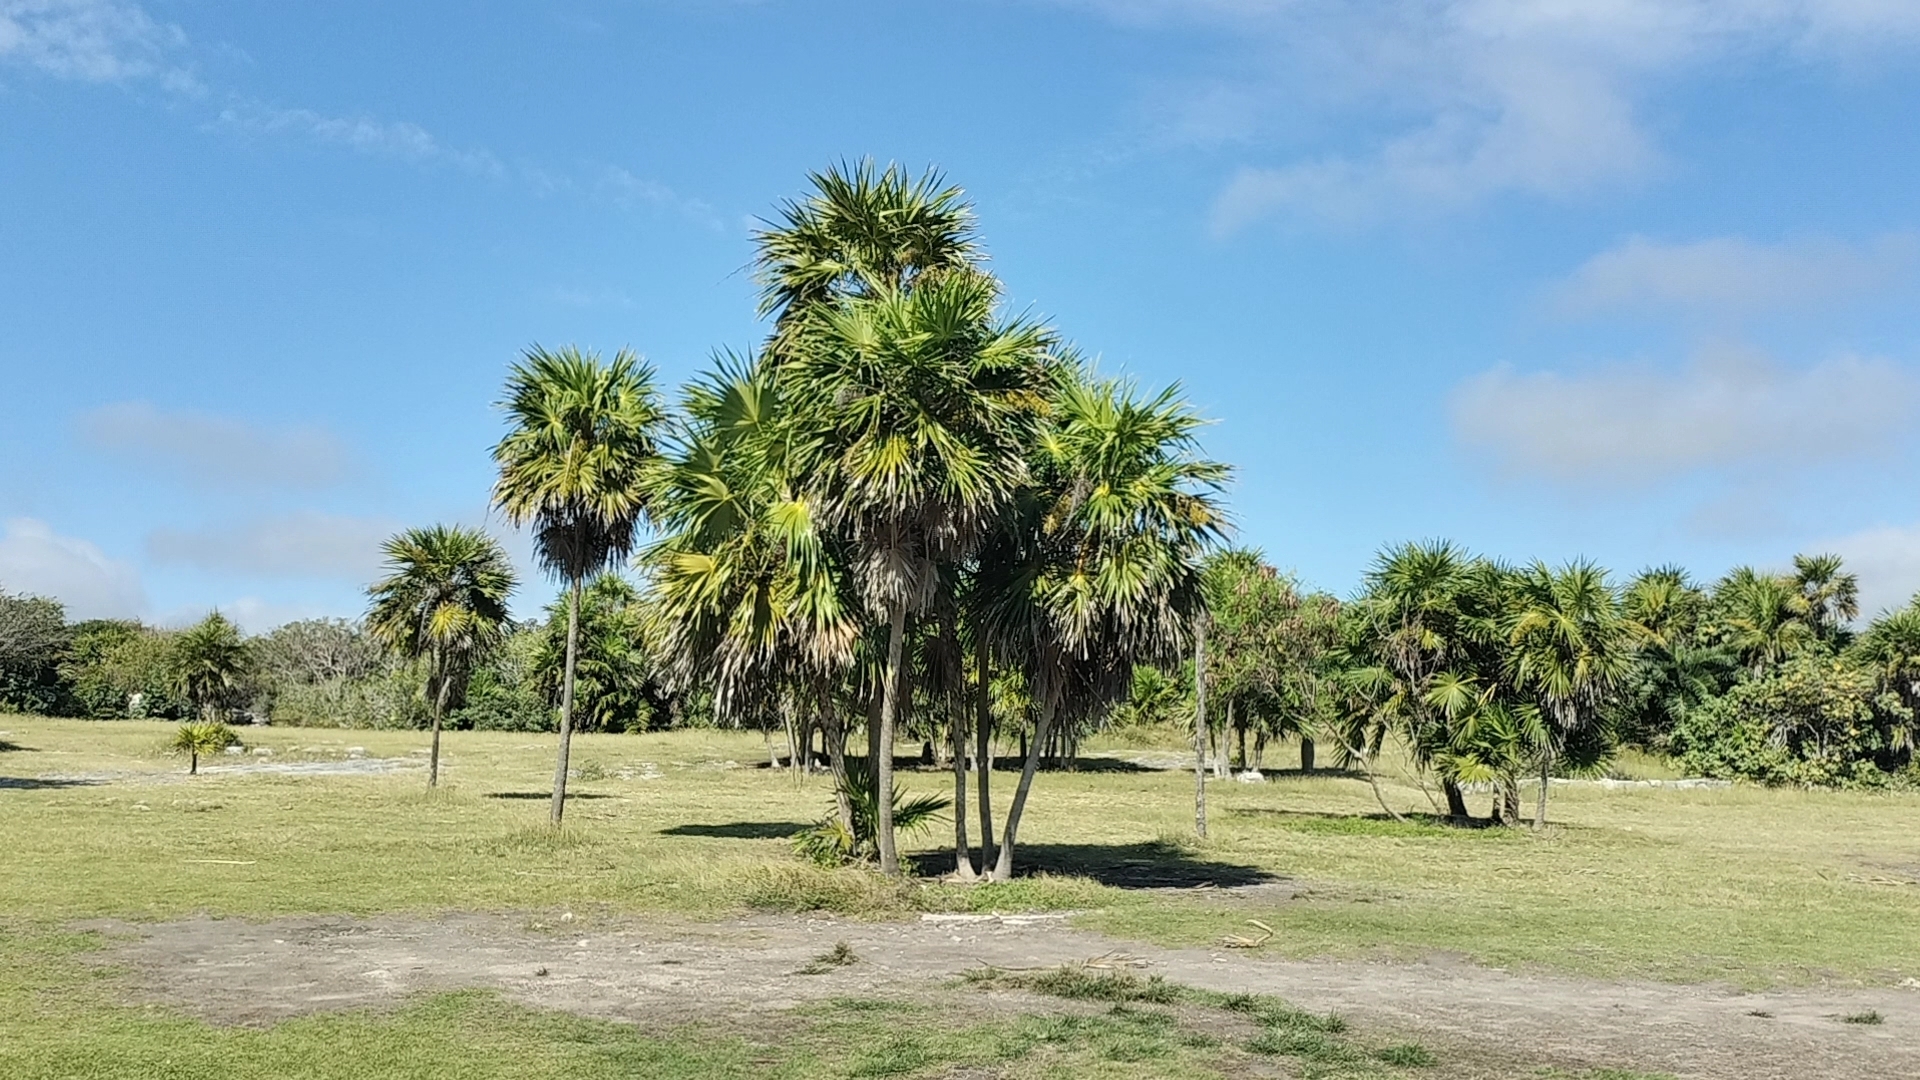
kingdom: Plantae
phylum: Tracheophyta
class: Liliopsida
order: Arecales
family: Arecaceae
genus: Thrinax
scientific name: Thrinax radiata
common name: Florida thatch
